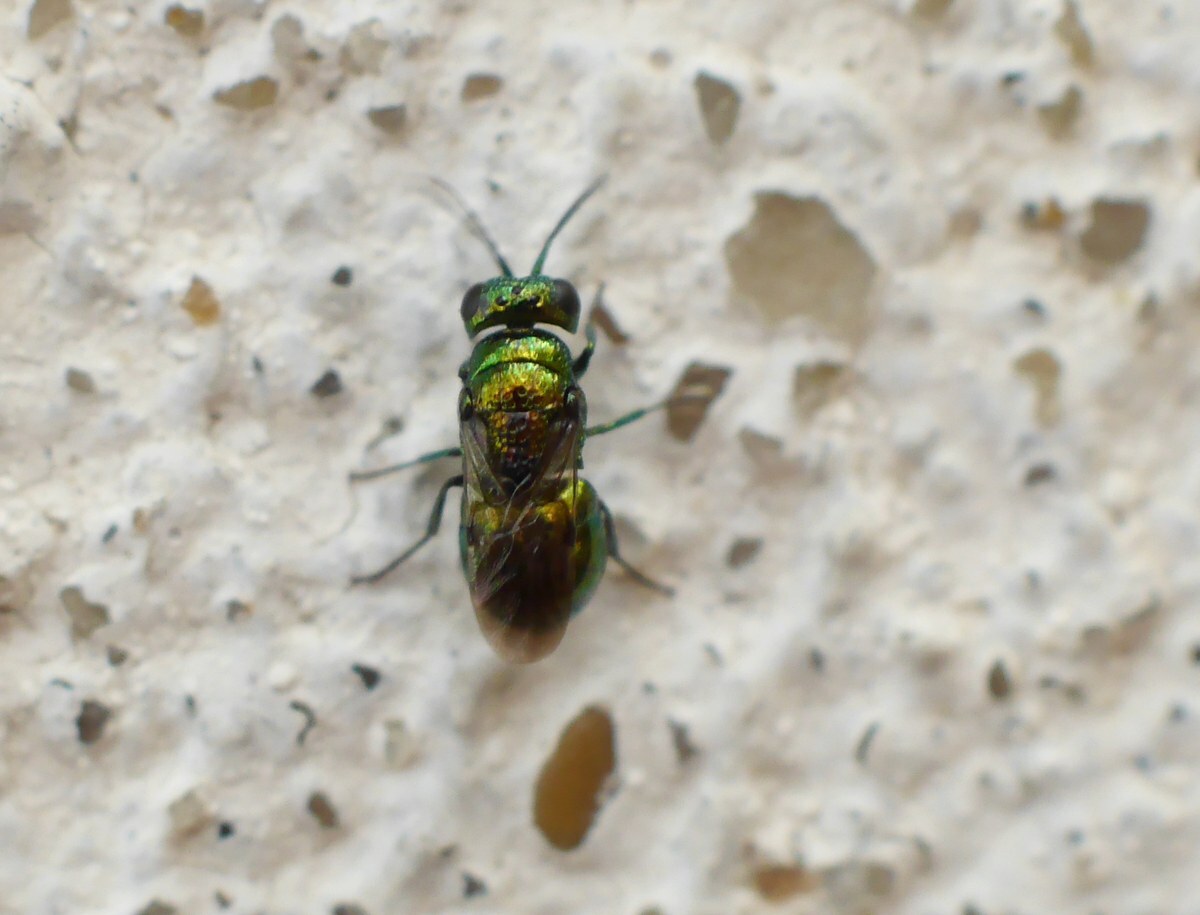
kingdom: Animalia
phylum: Arthropoda
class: Insecta
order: Hymenoptera
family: Chrysididae
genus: Pseudomalus
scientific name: Pseudomalus pusillus
